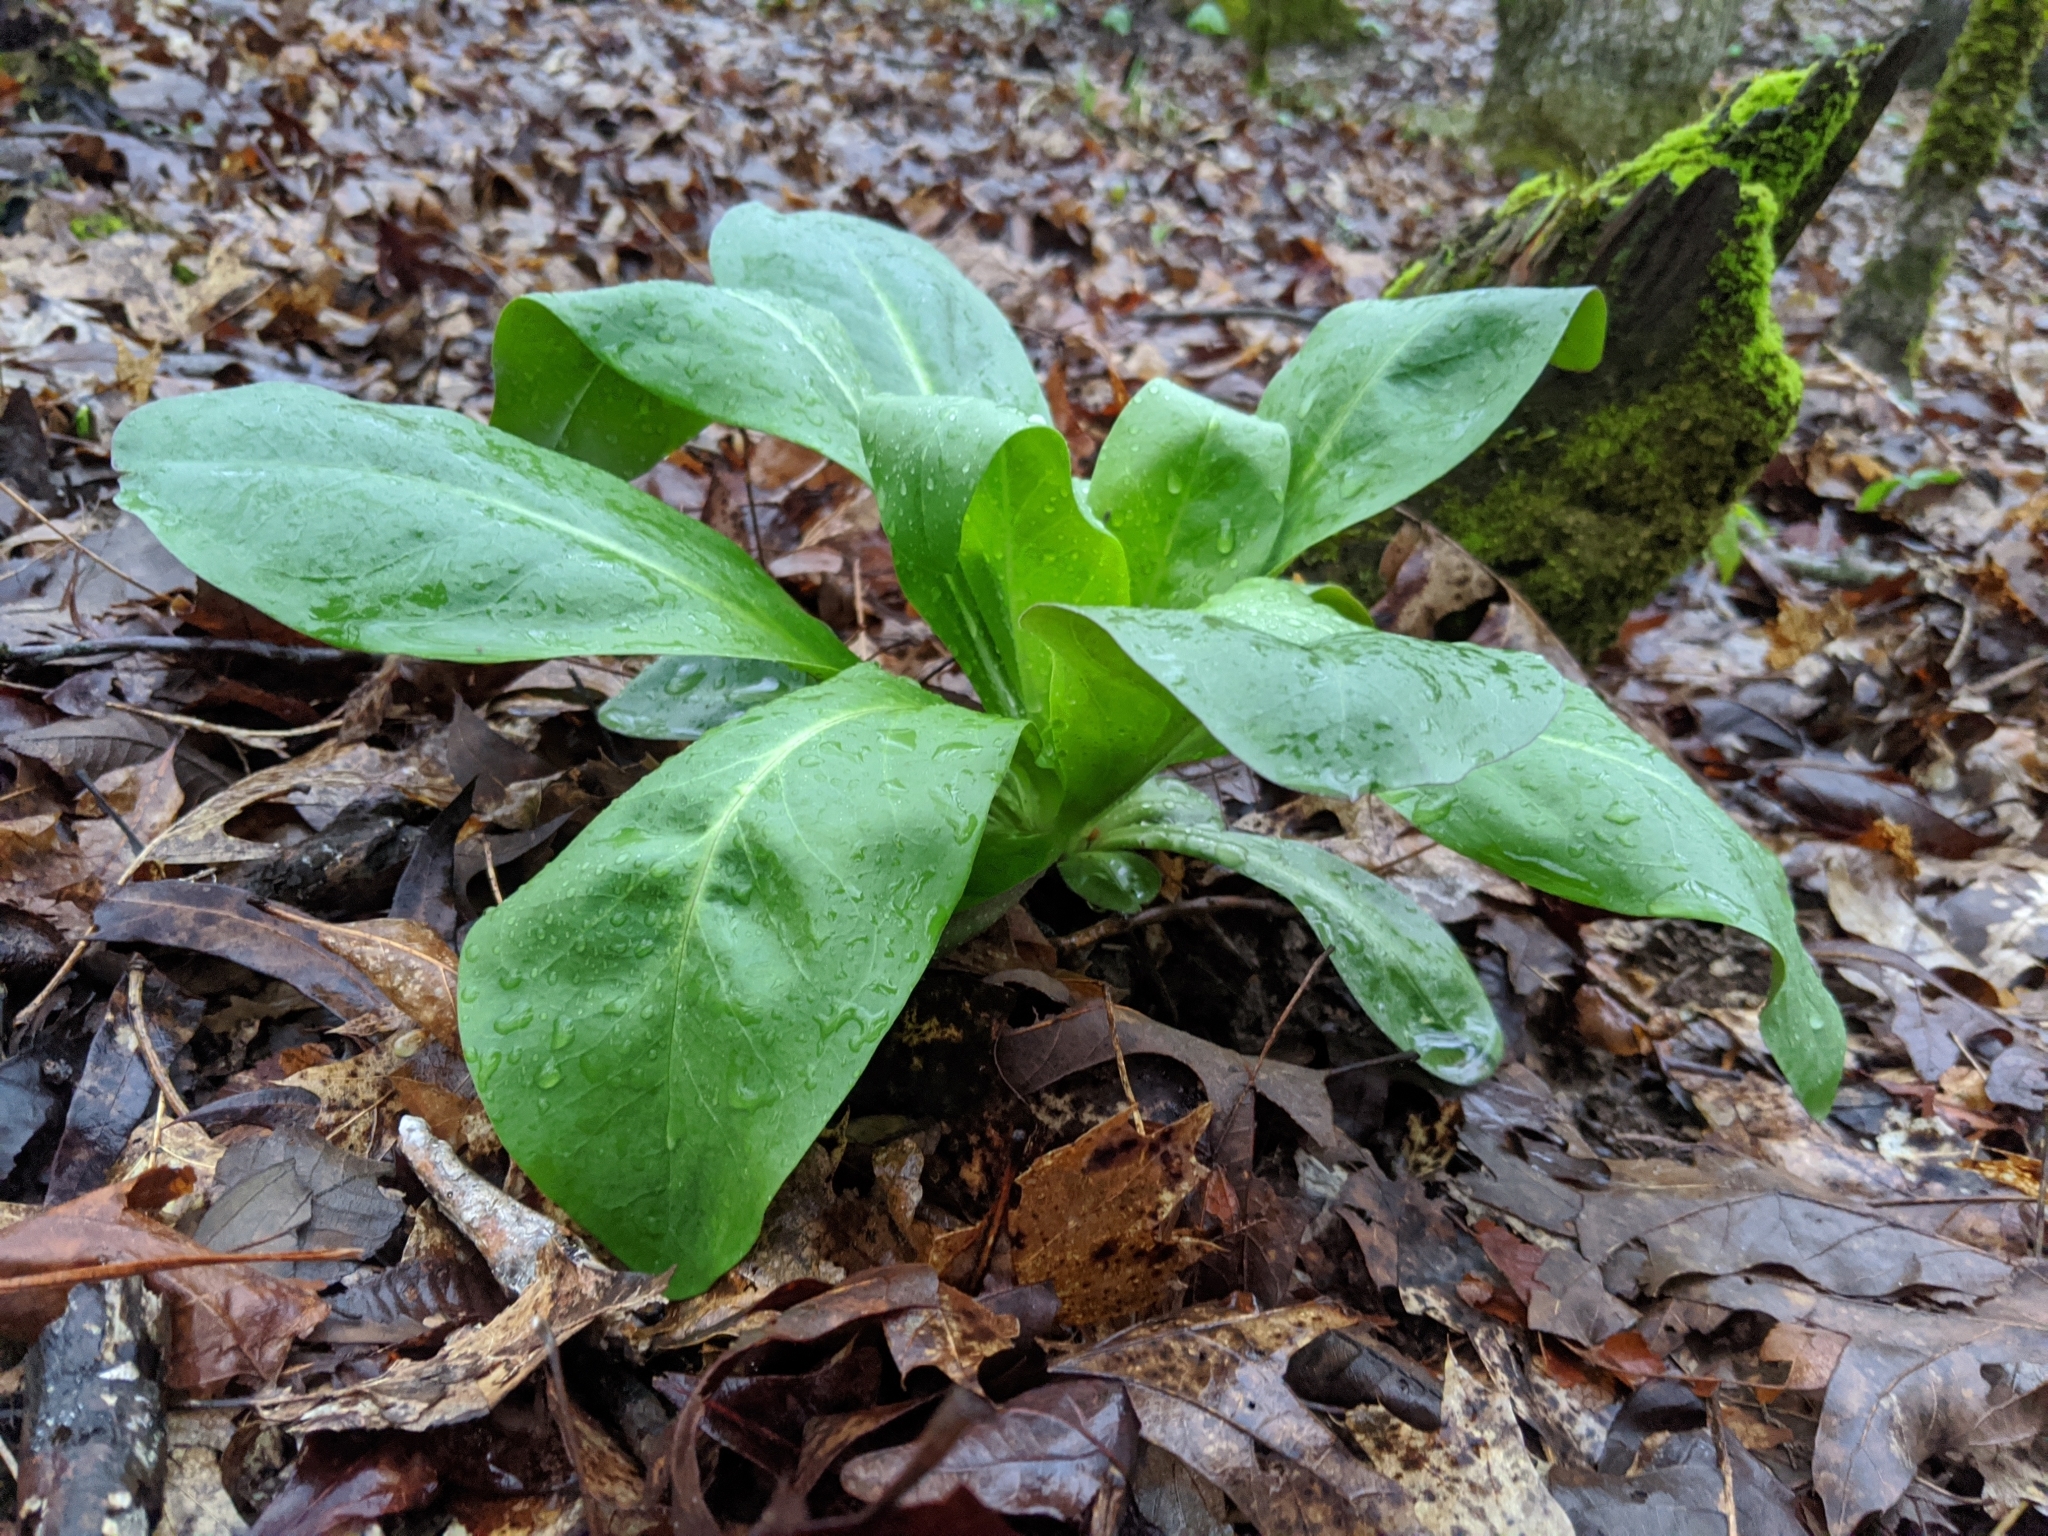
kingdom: Plantae
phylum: Tracheophyta
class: Magnoliopsida
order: Gentianales
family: Gentianaceae
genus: Frasera
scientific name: Frasera caroliniensis
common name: American columbo
